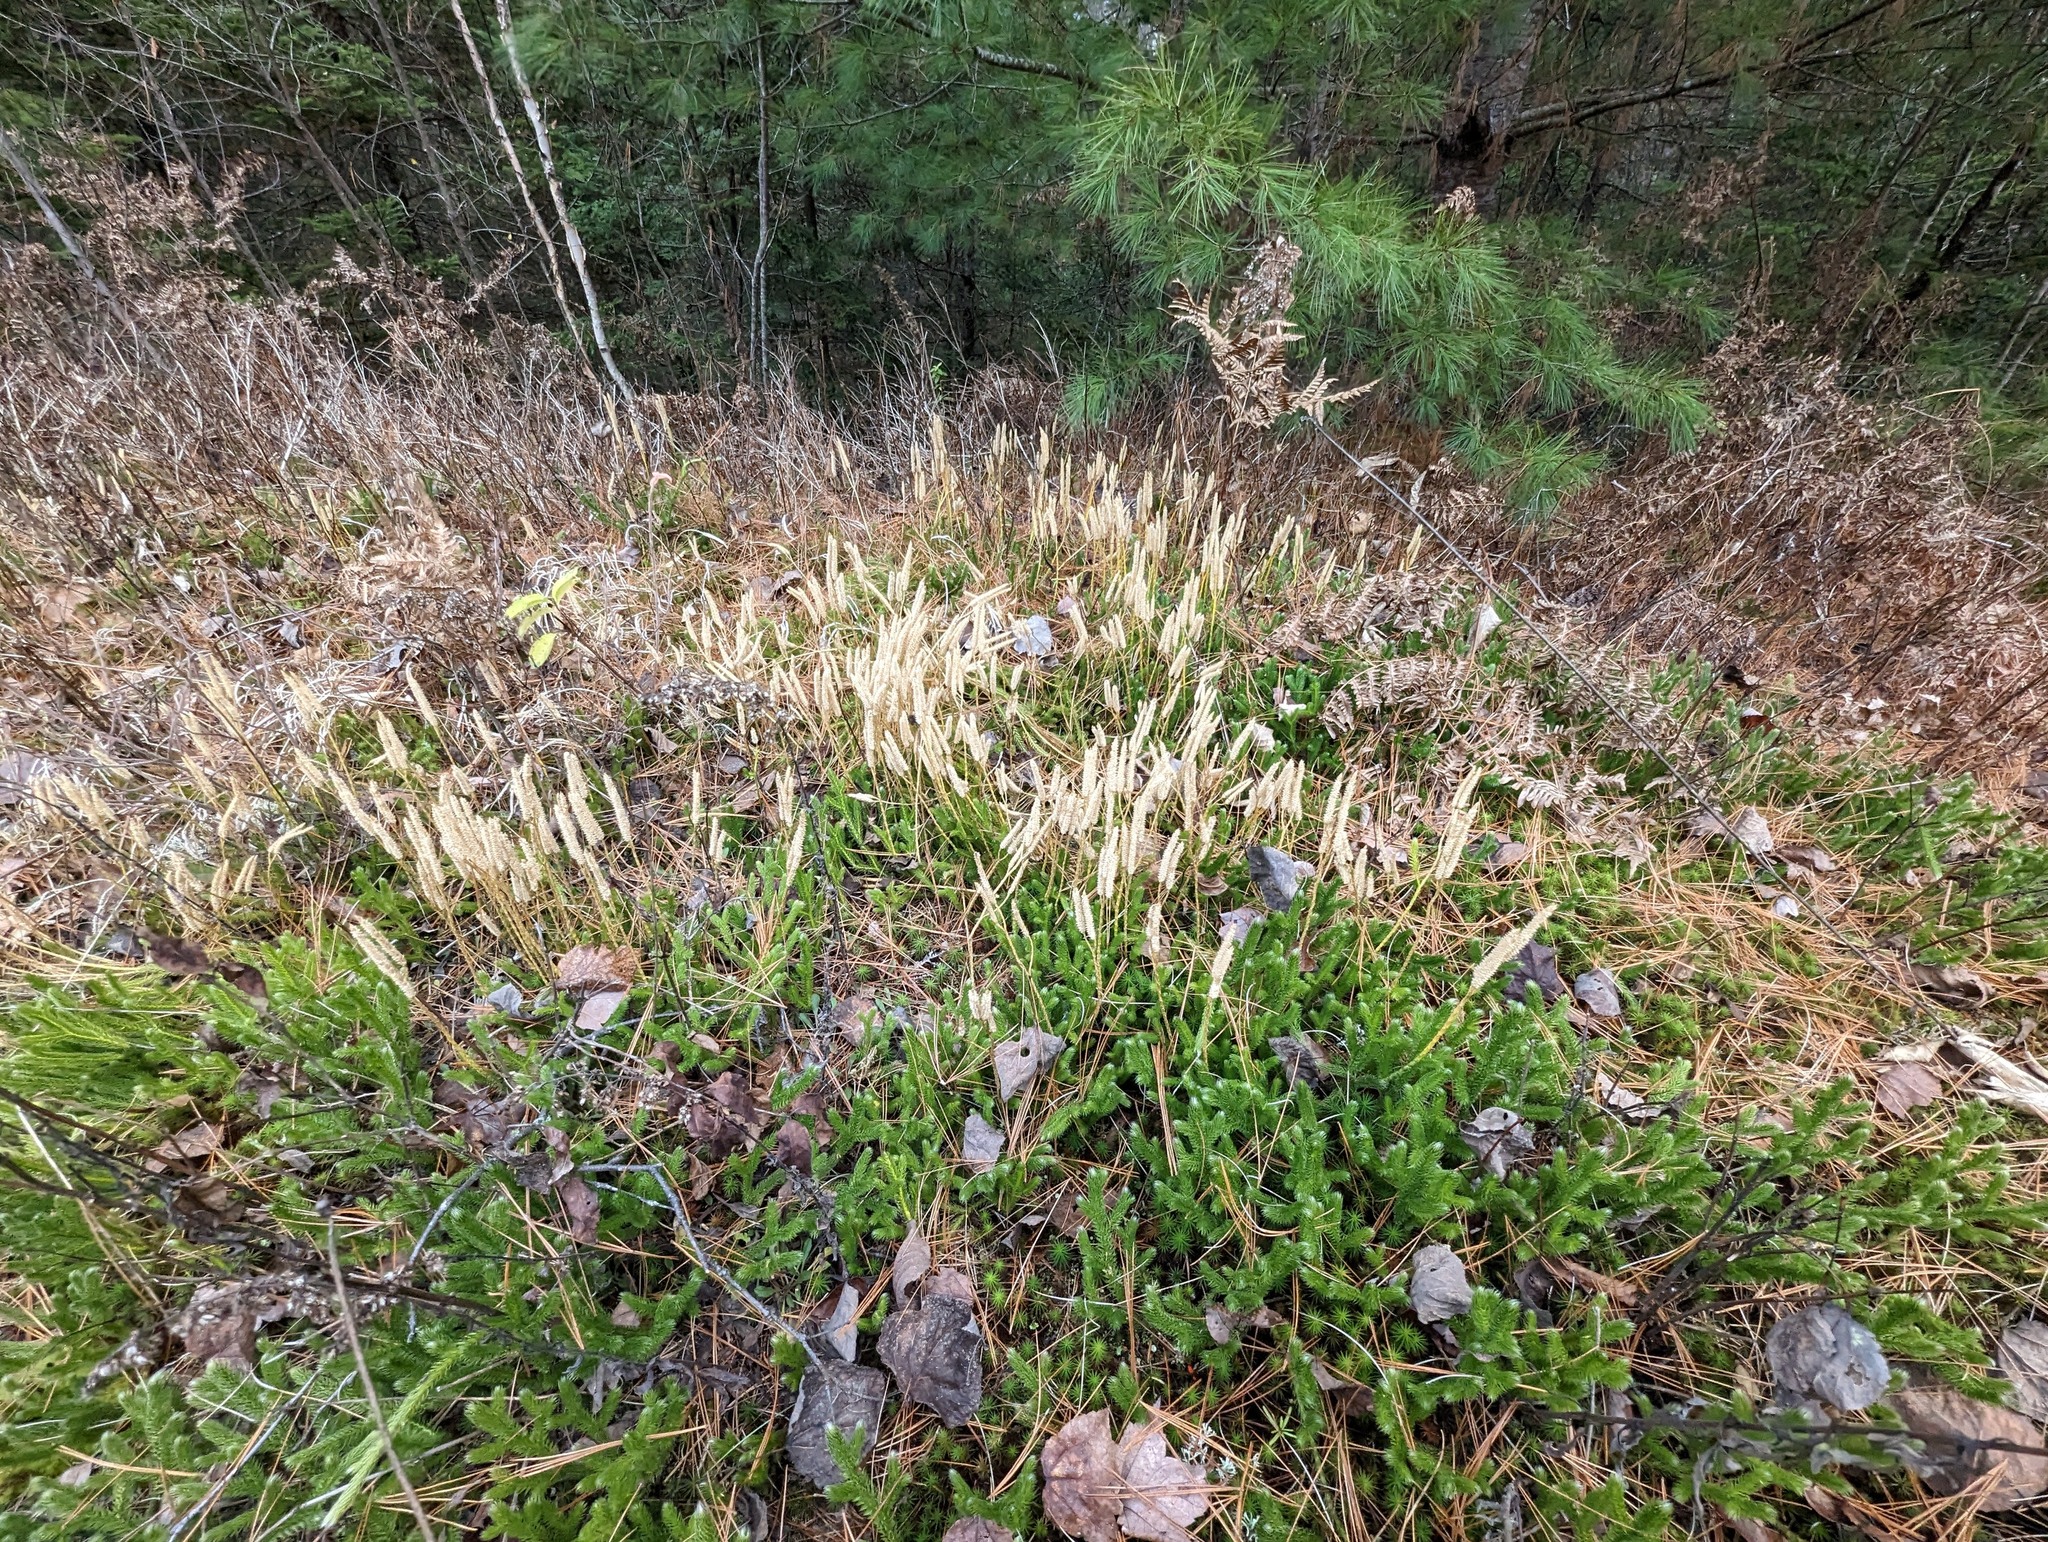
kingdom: Plantae
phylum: Tracheophyta
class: Lycopodiopsida
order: Lycopodiales
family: Lycopodiaceae
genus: Lycopodium
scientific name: Lycopodium clavatum
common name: Stag's-horn clubmoss
